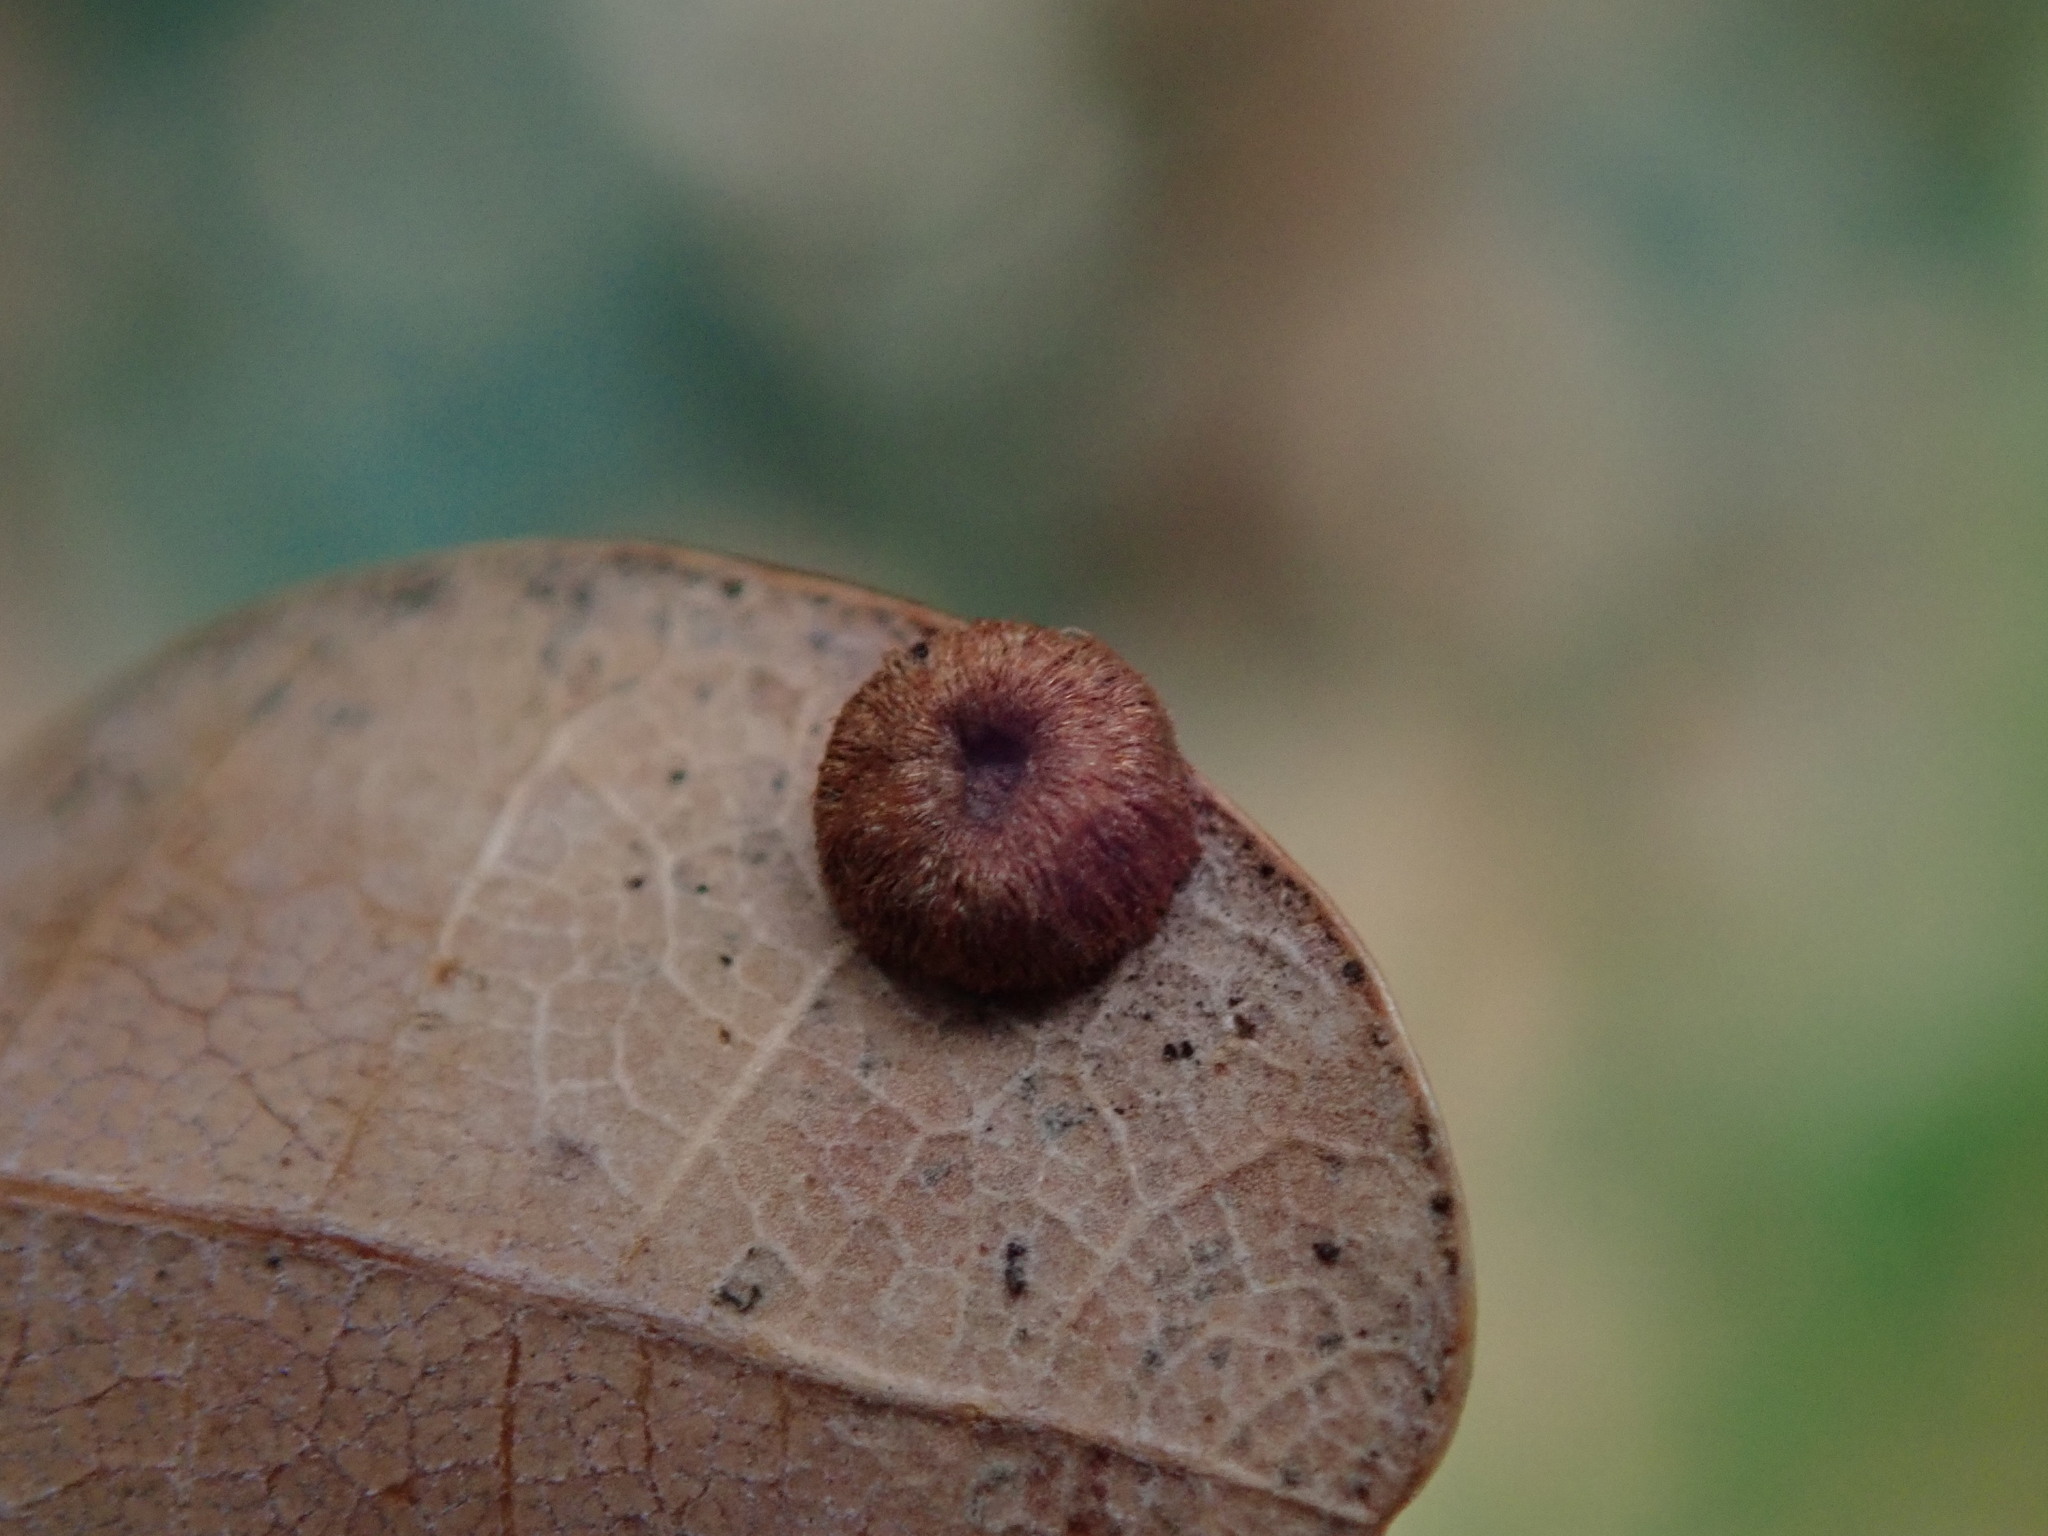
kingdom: Animalia
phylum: Arthropoda
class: Insecta
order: Hymenoptera
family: Cynipidae
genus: Neuroterus
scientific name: Neuroterus numismalis
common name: Silk-button spangle gall
